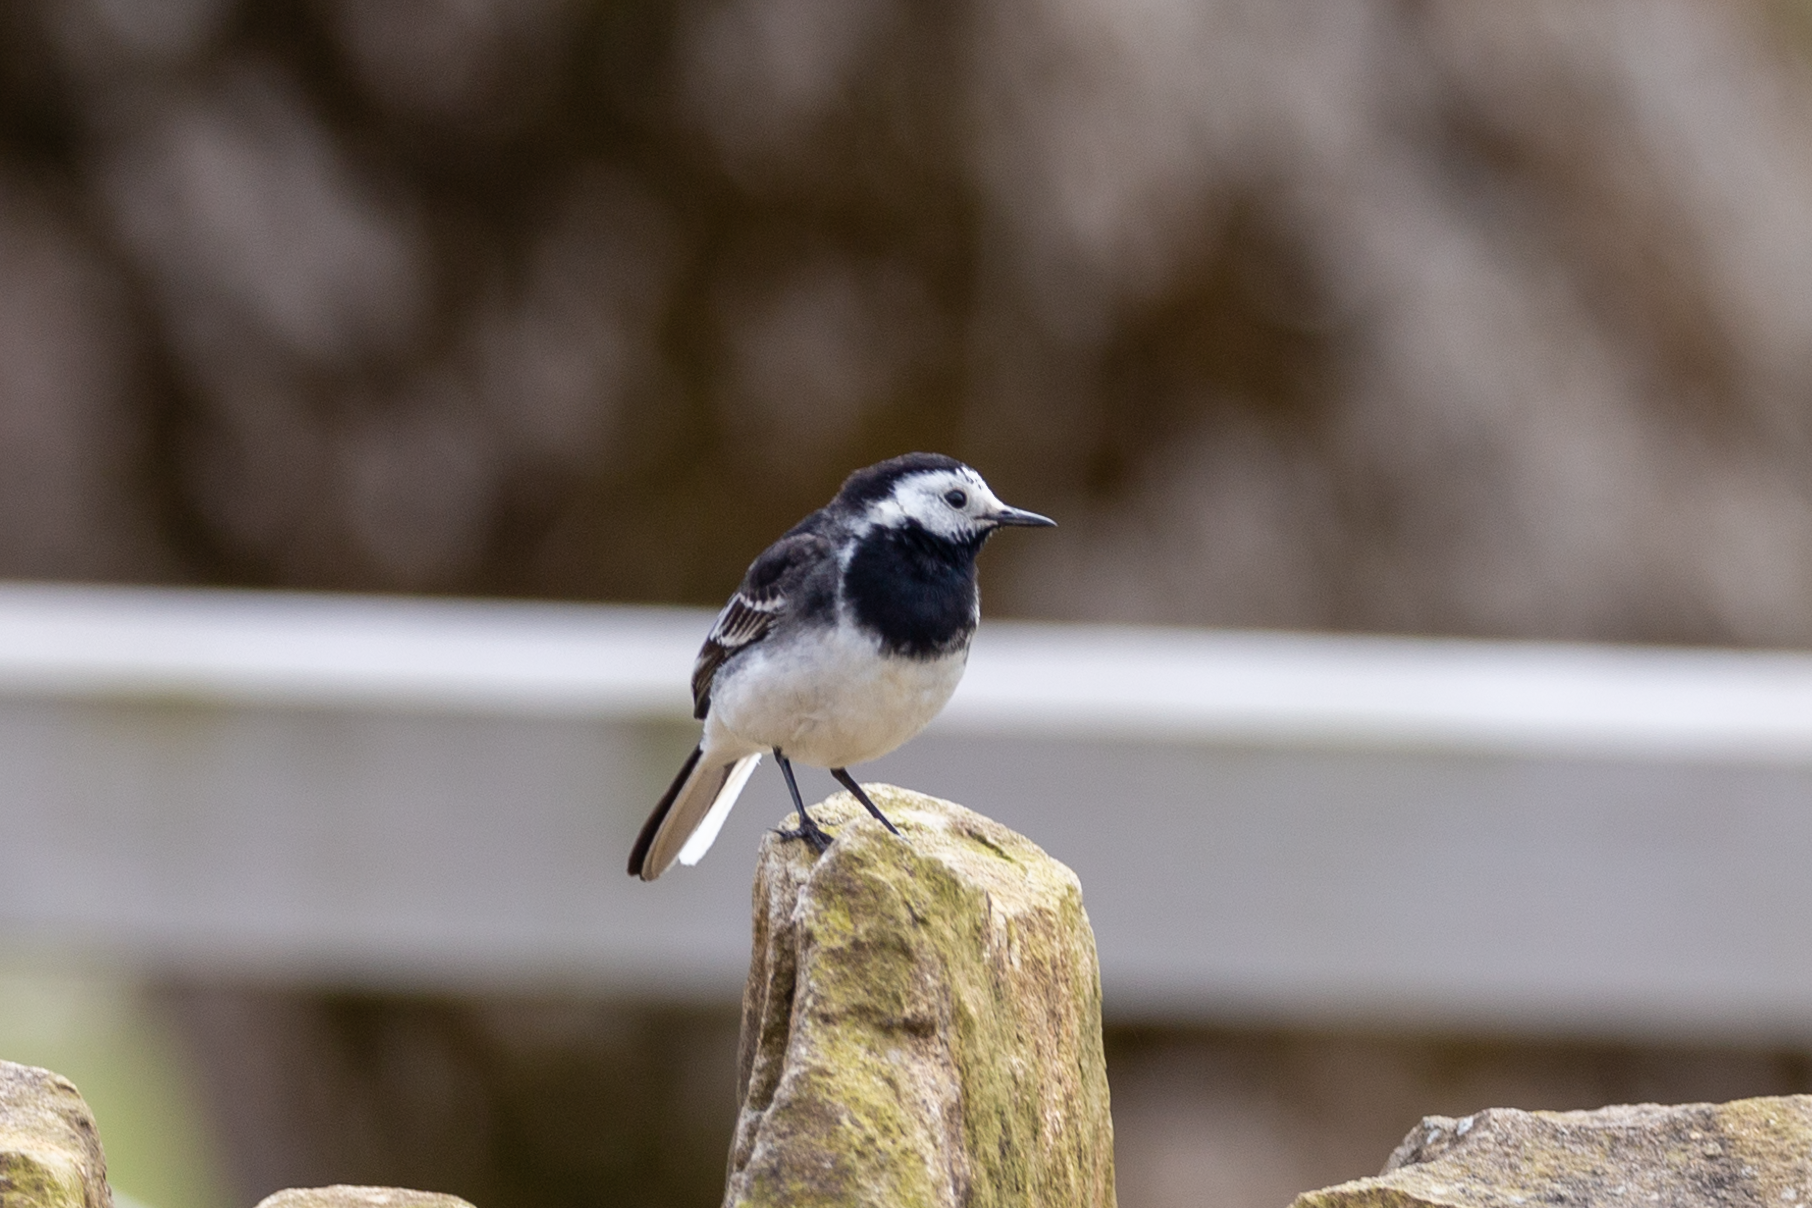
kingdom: Animalia
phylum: Chordata
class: Aves
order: Passeriformes
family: Motacillidae
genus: Motacilla
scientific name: Motacilla alba
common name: White wagtail
